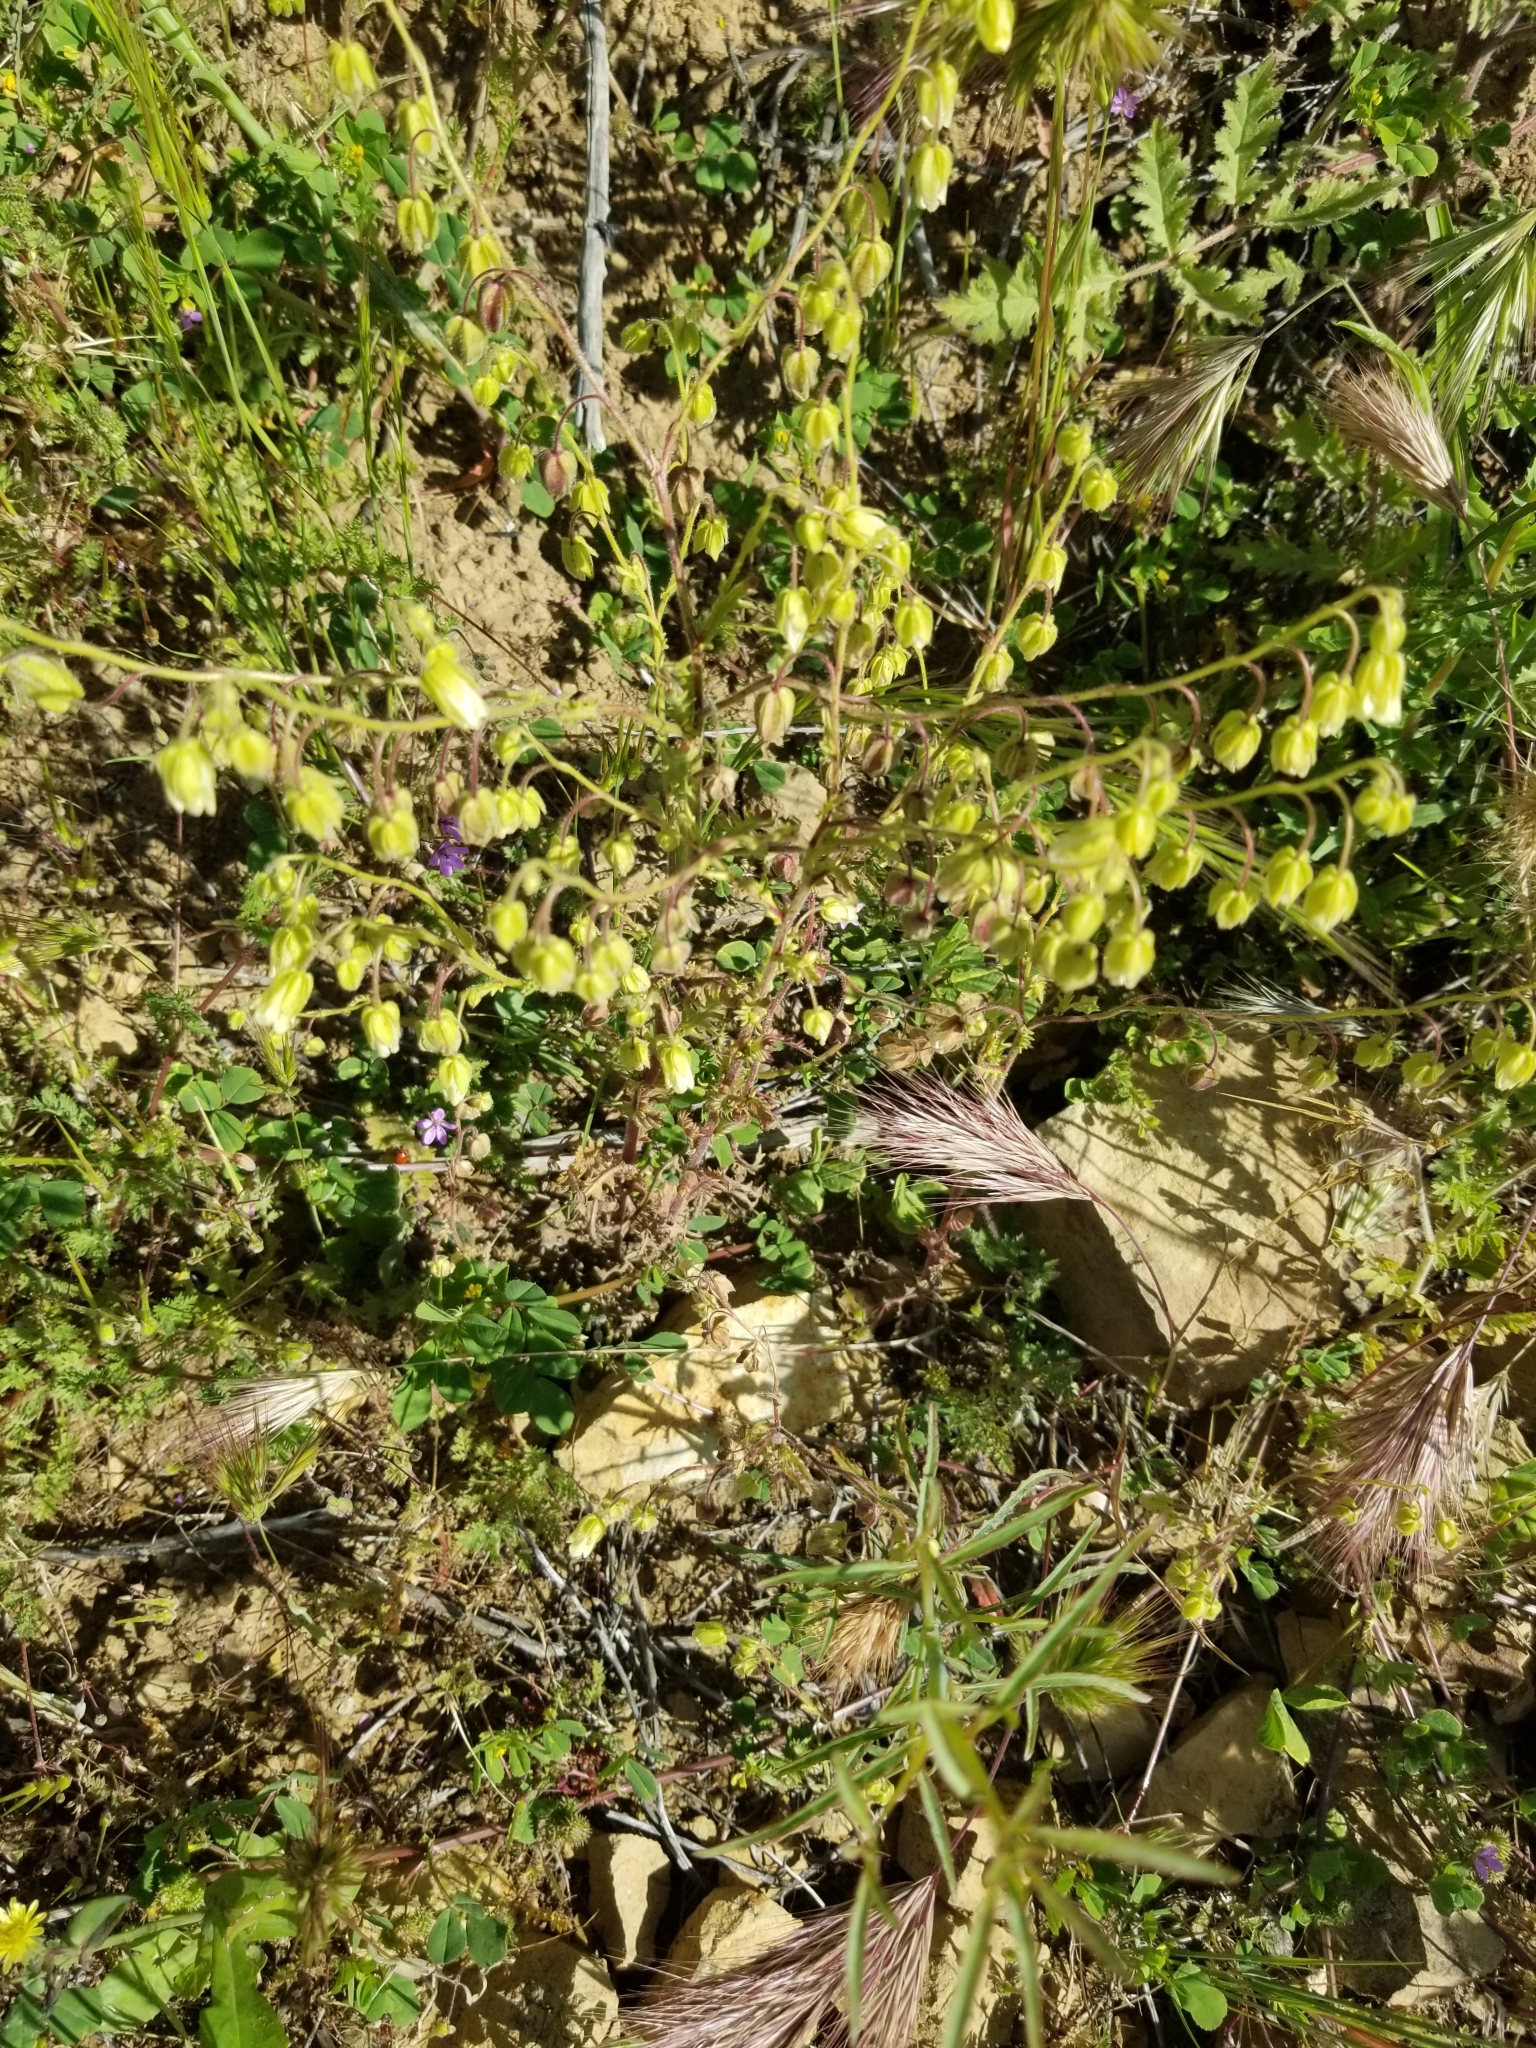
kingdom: Plantae
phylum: Tracheophyta
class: Magnoliopsida
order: Boraginales
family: Hydrophyllaceae
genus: Emmenanthe
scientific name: Emmenanthe penduliflora
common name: Whispering-bells
